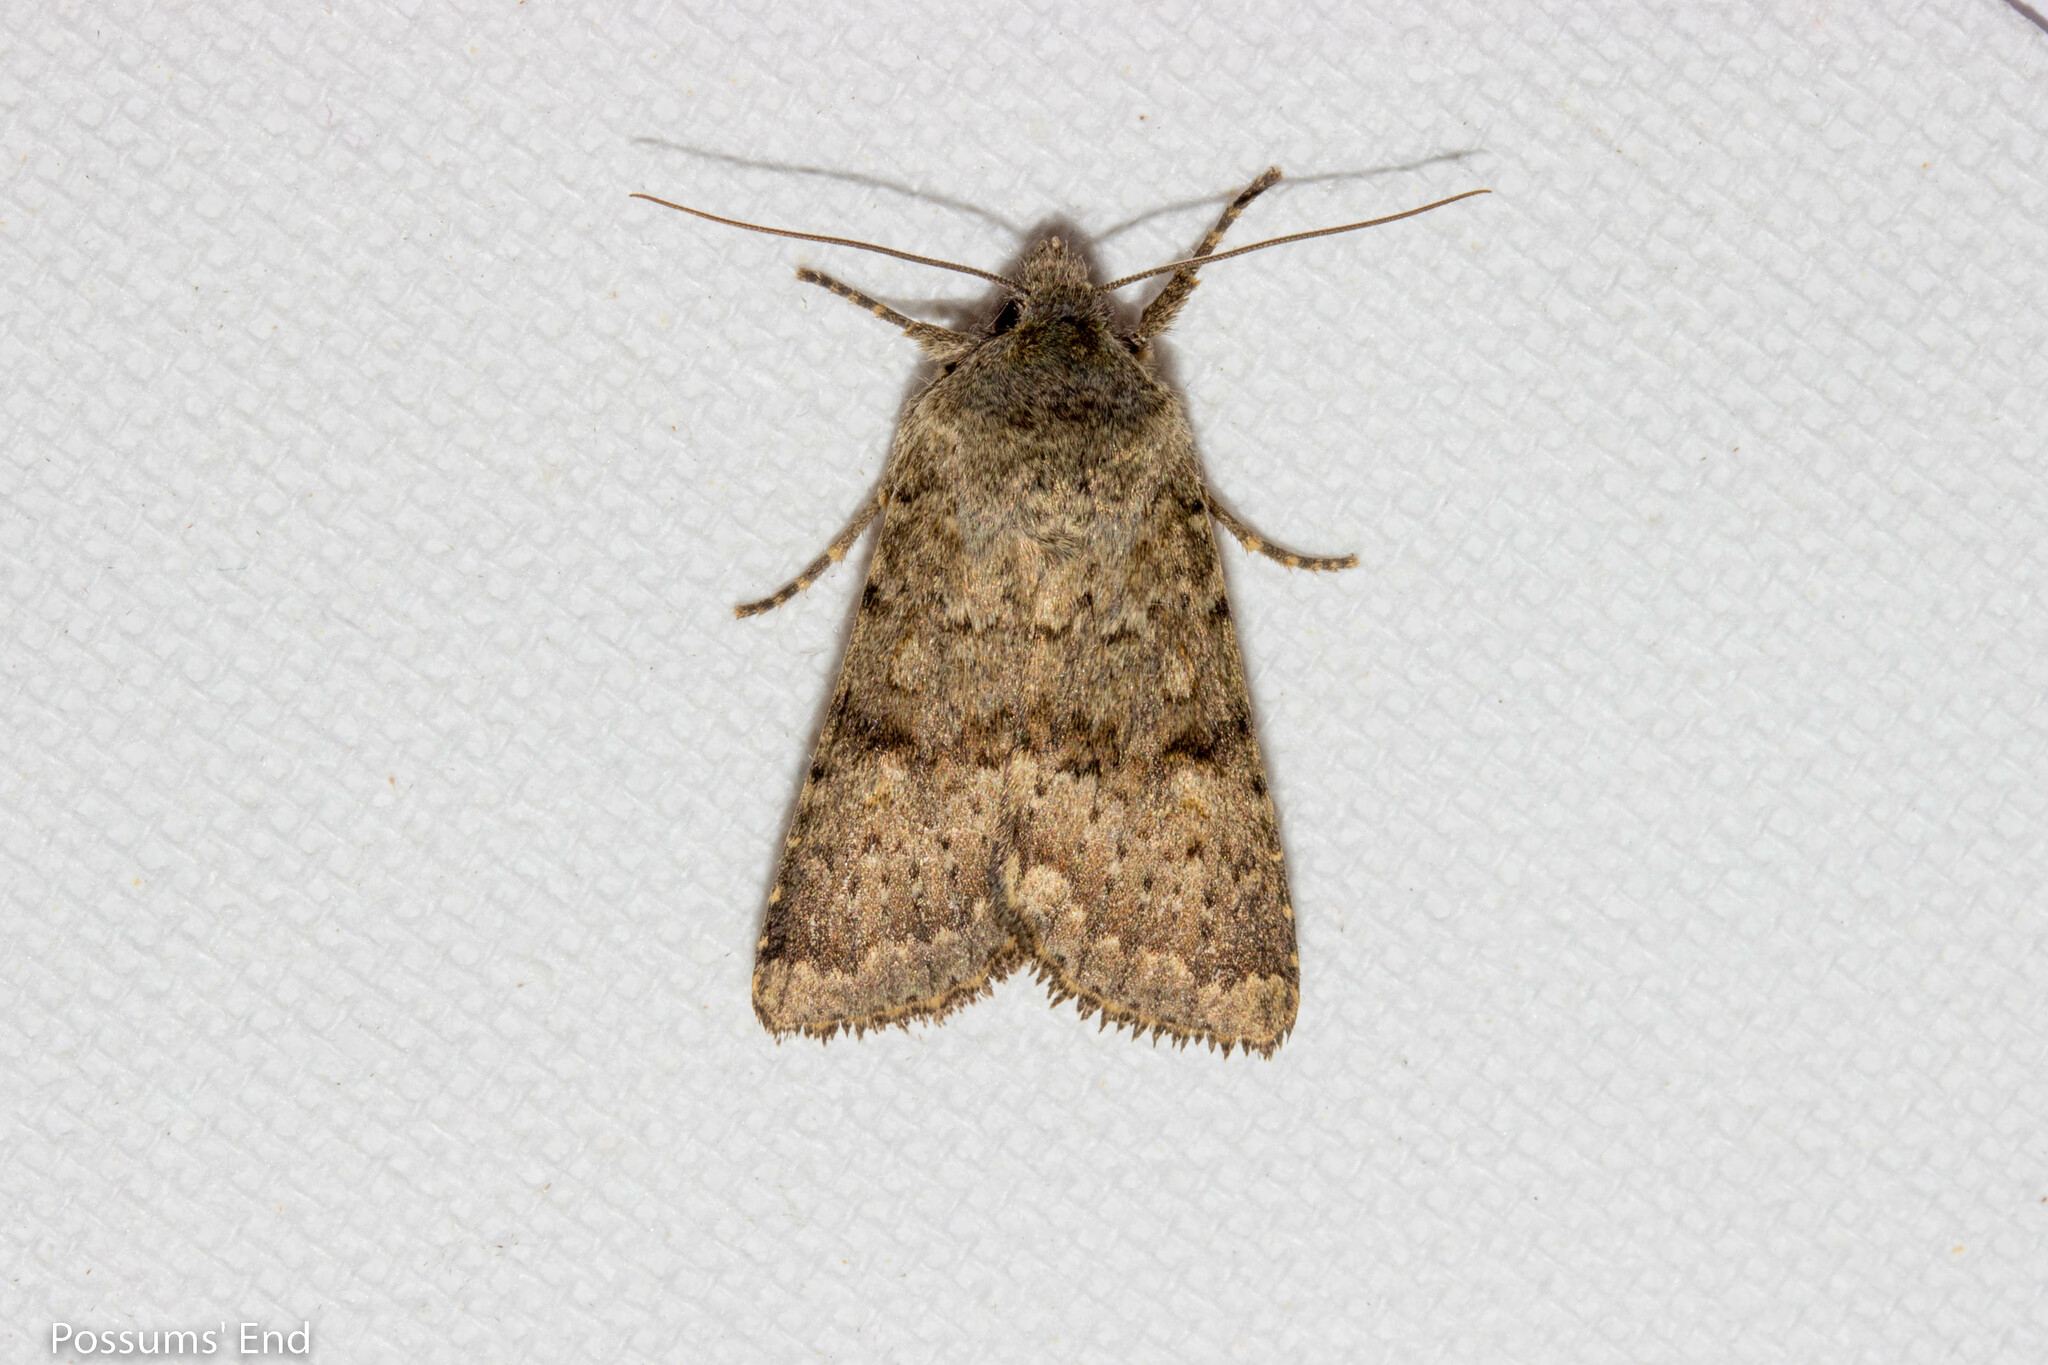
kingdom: Animalia
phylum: Arthropoda
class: Insecta
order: Lepidoptera
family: Noctuidae
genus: Ichneutica
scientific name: Ichneutica moderata
